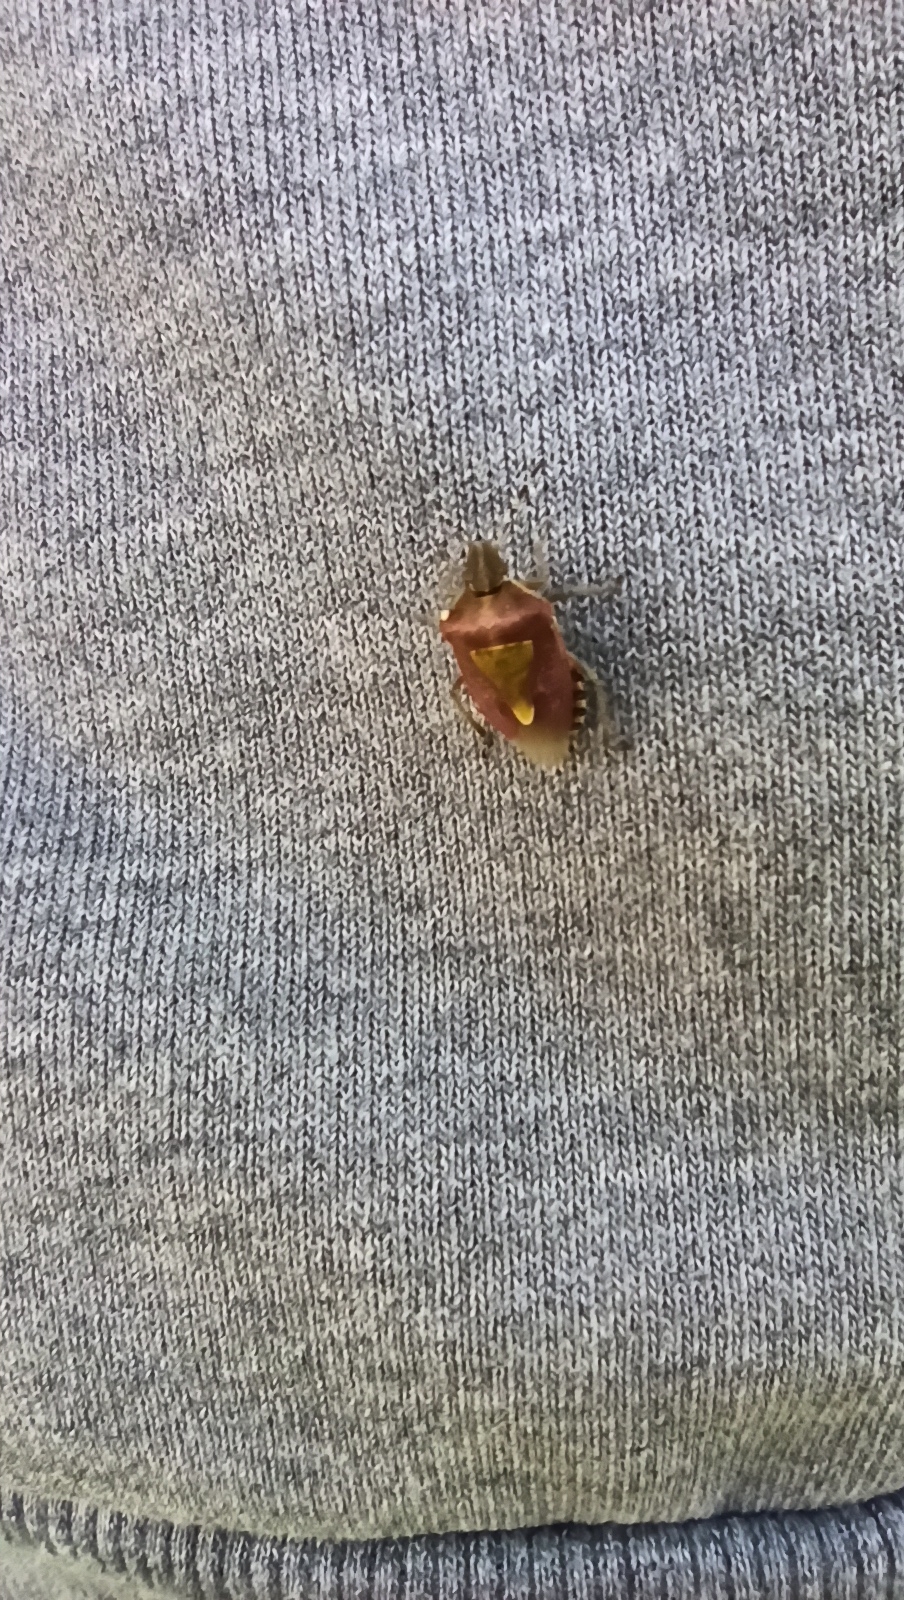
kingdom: Animalia
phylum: Arthropoda
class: Insecta
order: Hemiptera
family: Pentatomidae
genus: Dolycoris
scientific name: Dolycoris baccarum
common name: Sloe bug
